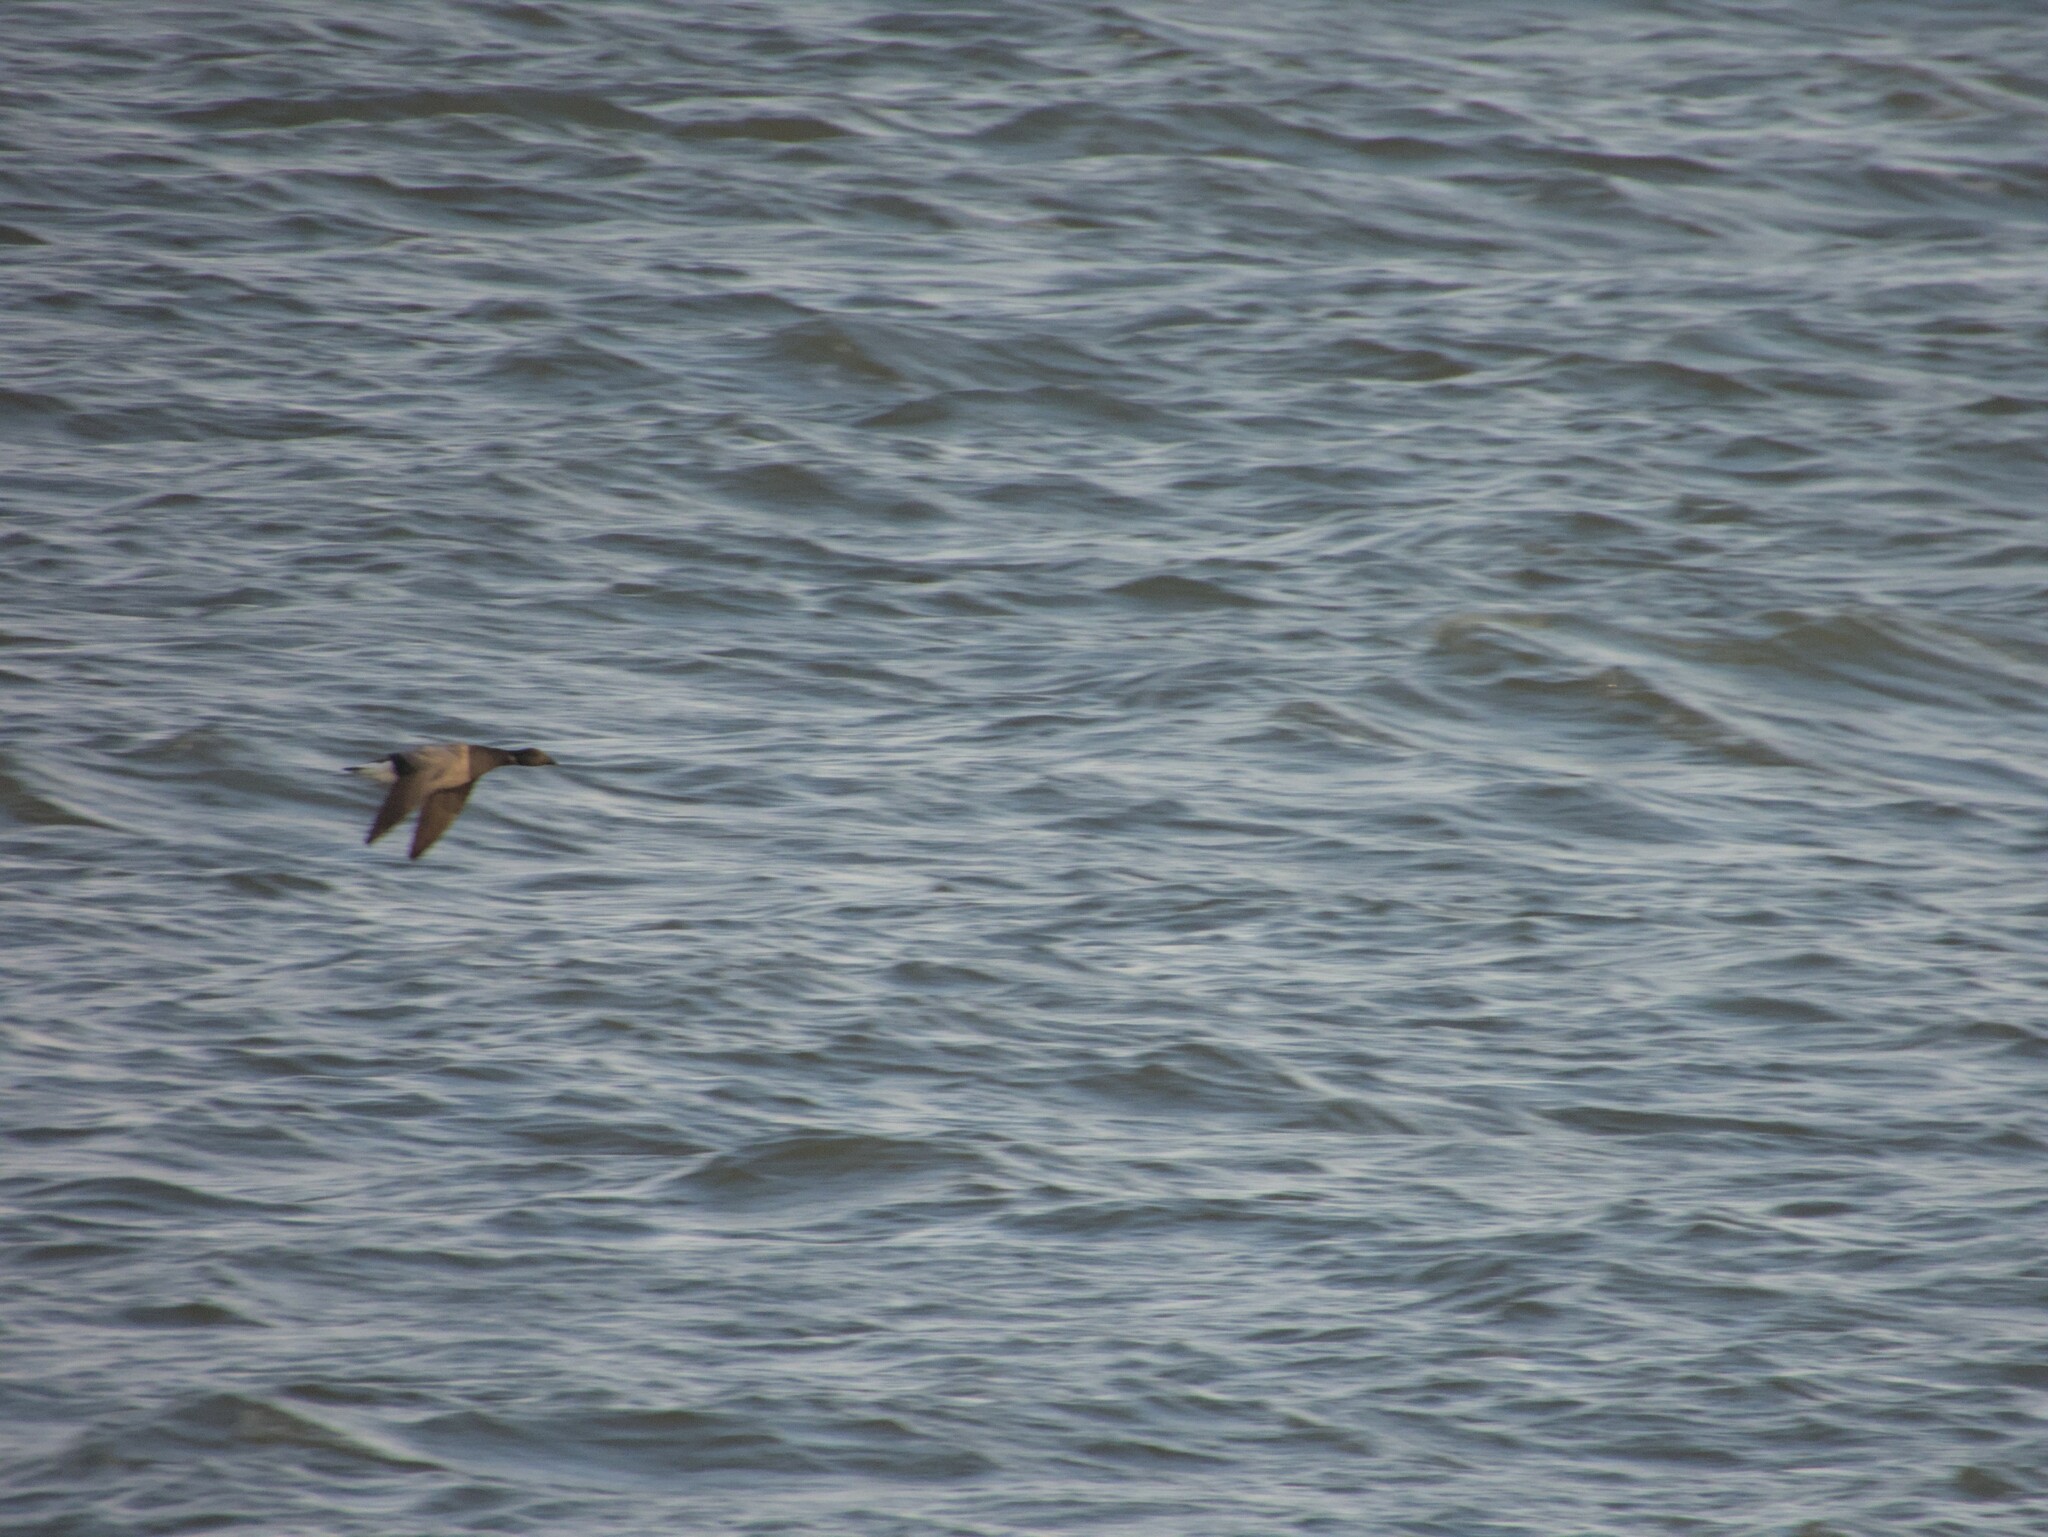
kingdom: Animalia
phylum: Chordata
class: Aves
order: Anseriformes
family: Anatidae
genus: Branta
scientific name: Branta bernicla
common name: Brant goose
